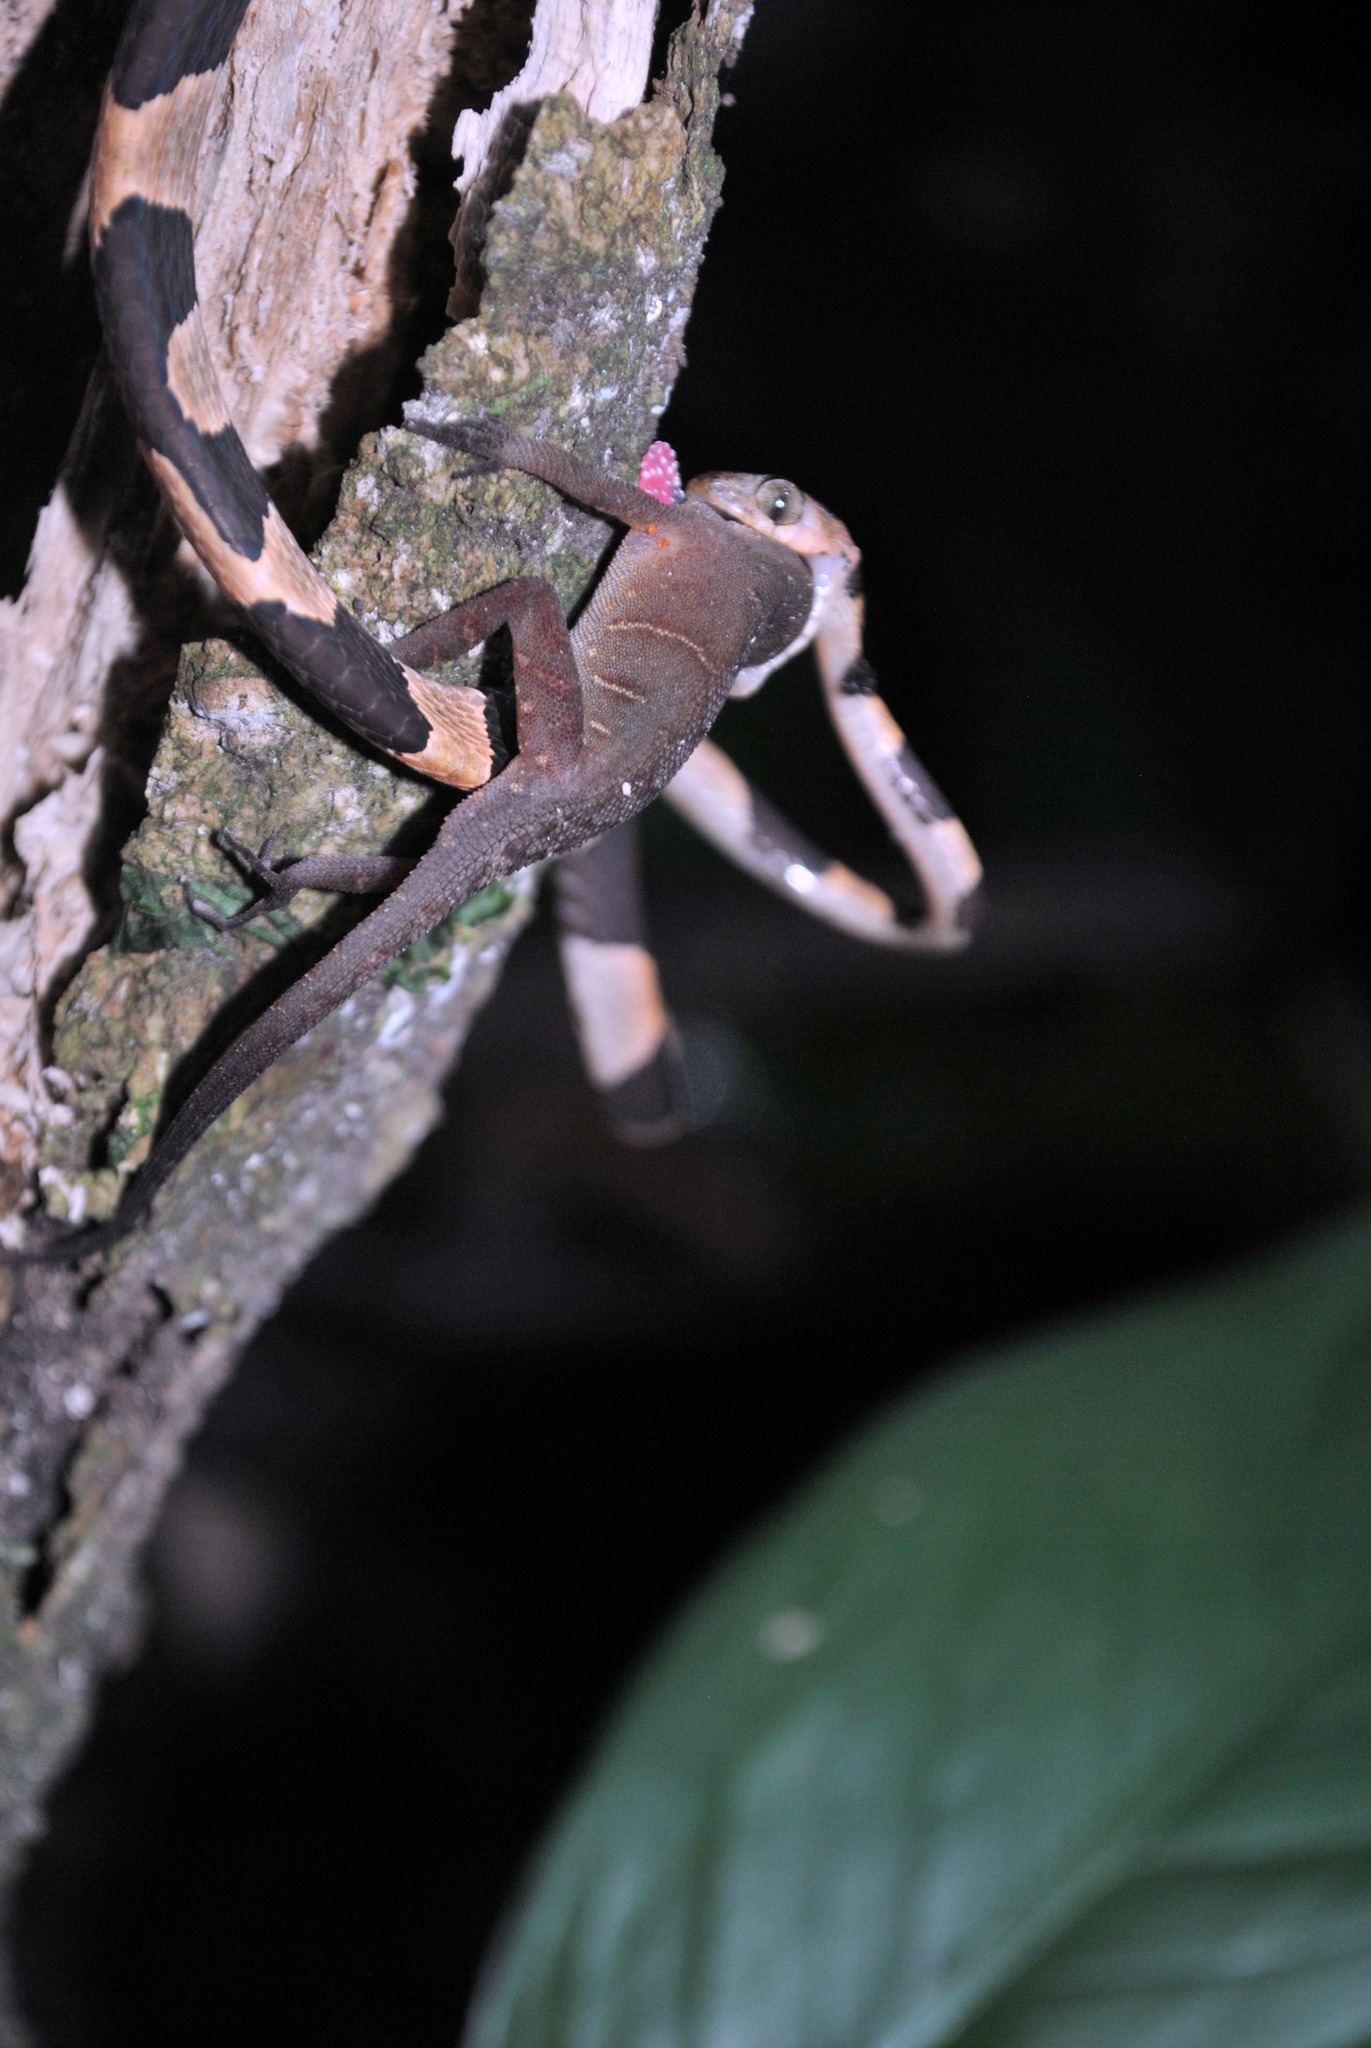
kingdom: Animalia
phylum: Chordata
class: Squamata
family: Colubridae
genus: Imantodes
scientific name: Imantodes cenchoa
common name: Blunthead tree snake
